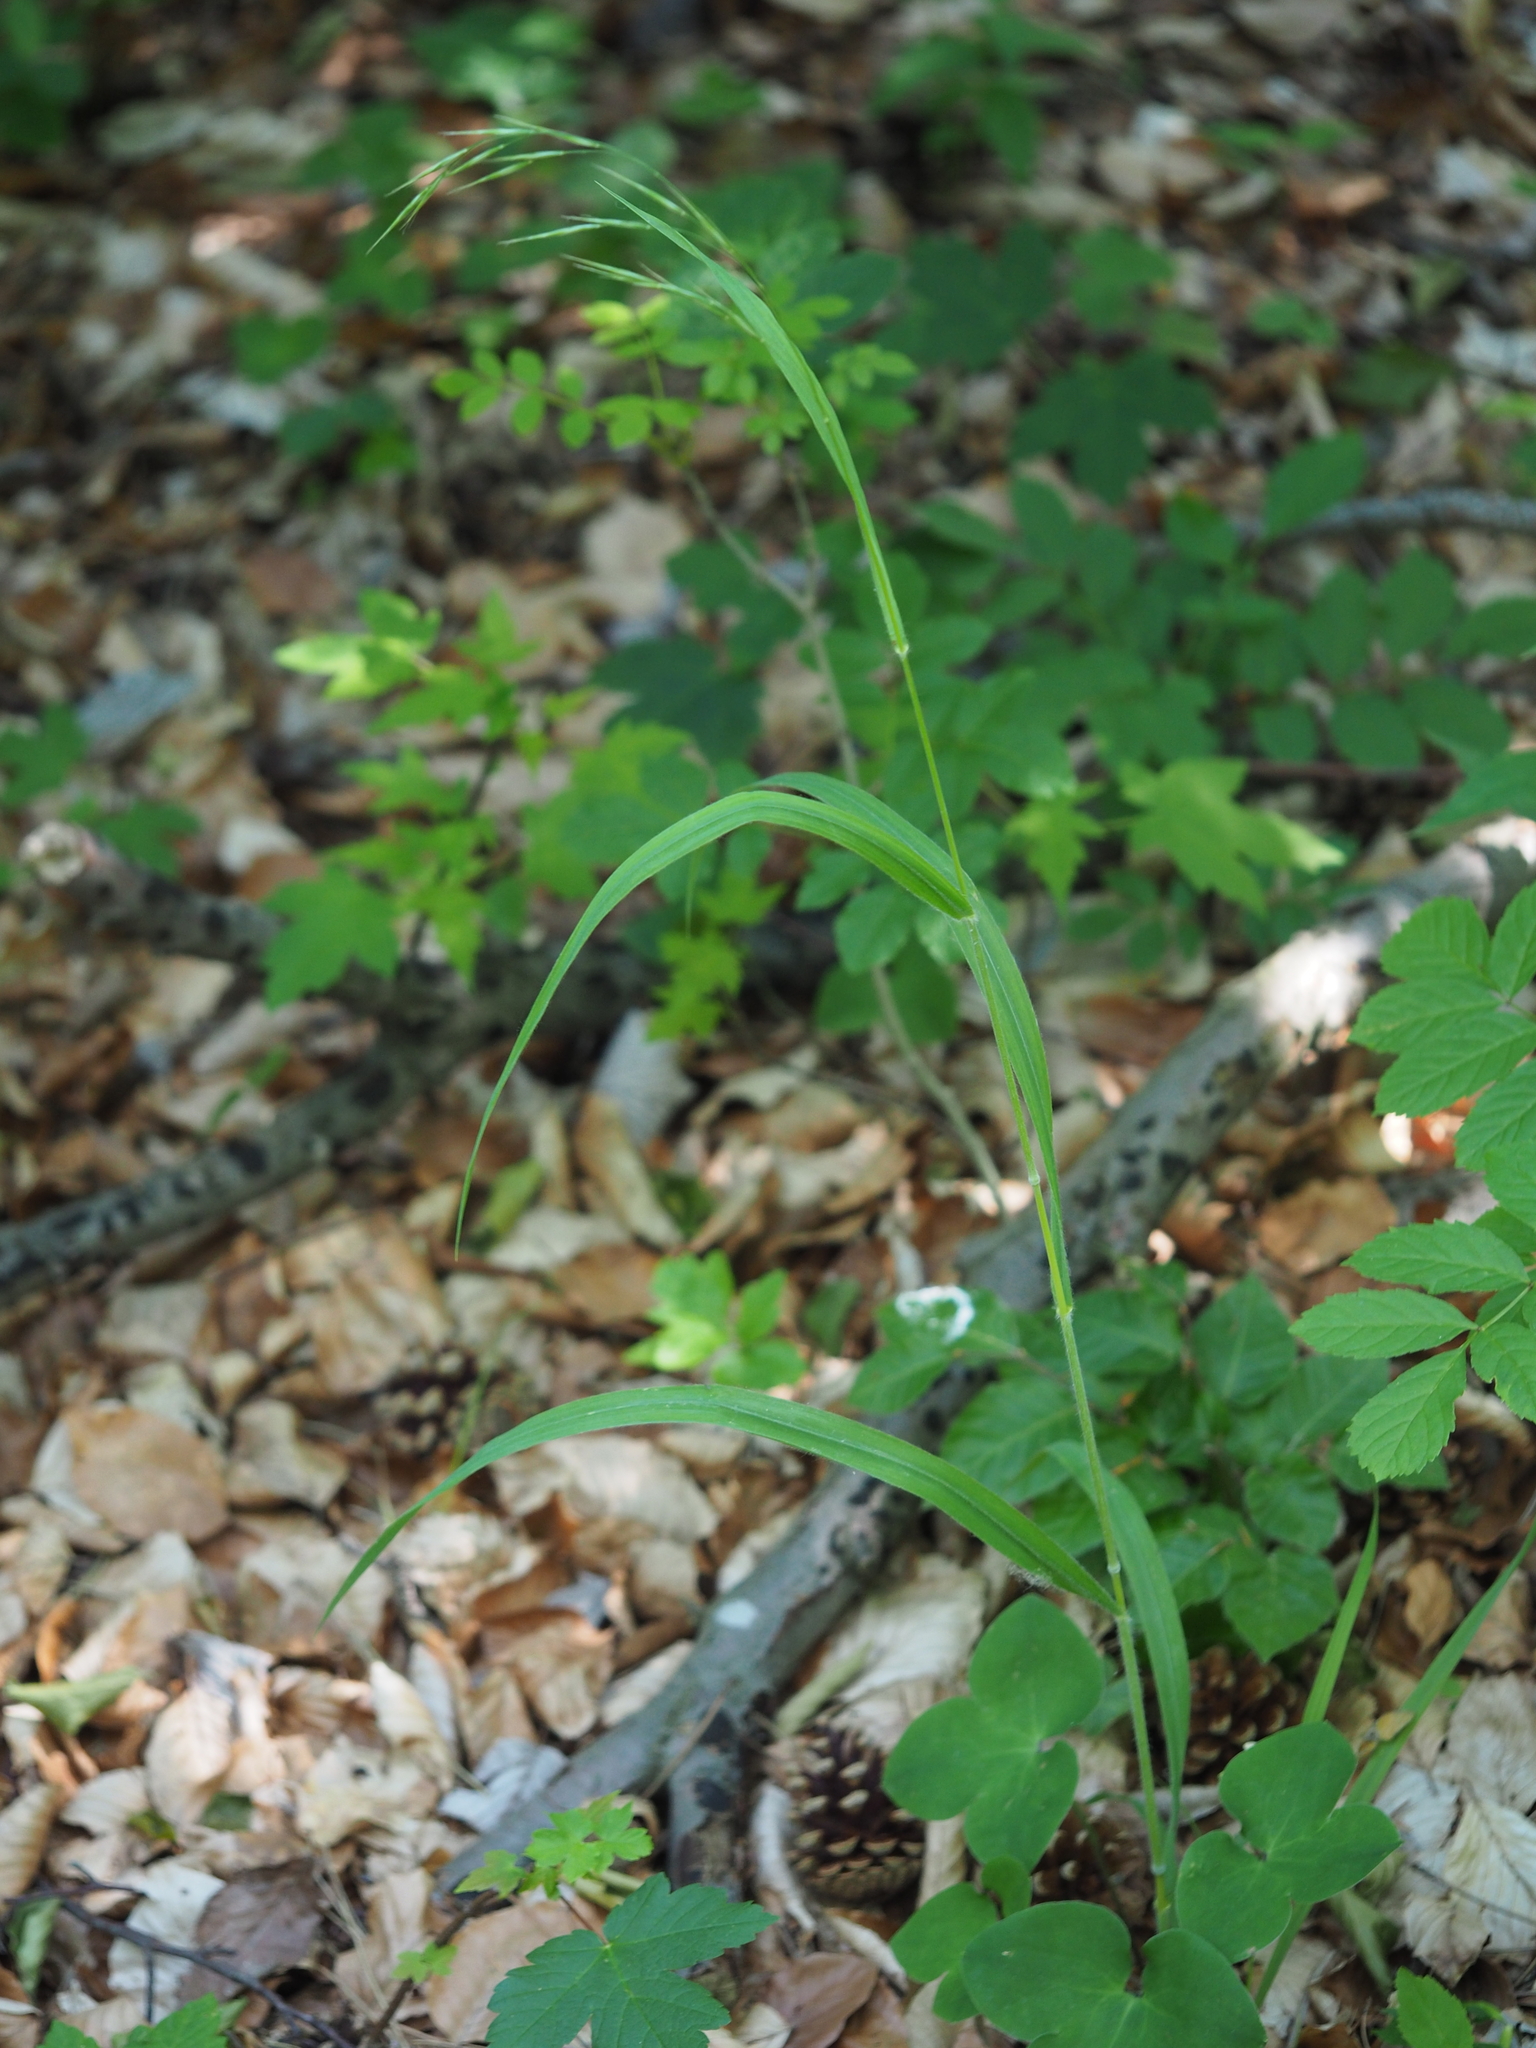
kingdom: Plantae
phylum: Tracheophyta
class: Liliopsida
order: Poales
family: Poaceae
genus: Brachypodium
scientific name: Brachypodium sylvaticum
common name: False-brome
